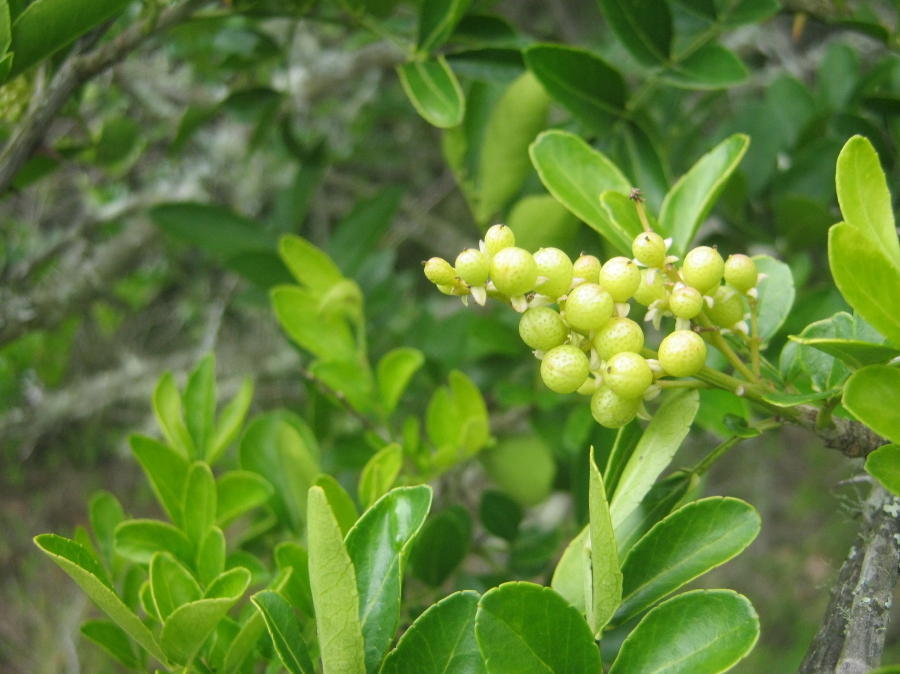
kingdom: Plantae
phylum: Tracheophyta
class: Magnoliopsida
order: Sapindales
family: Rutaceae
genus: Zanthoxylum
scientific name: Zanthoxylum davyi
